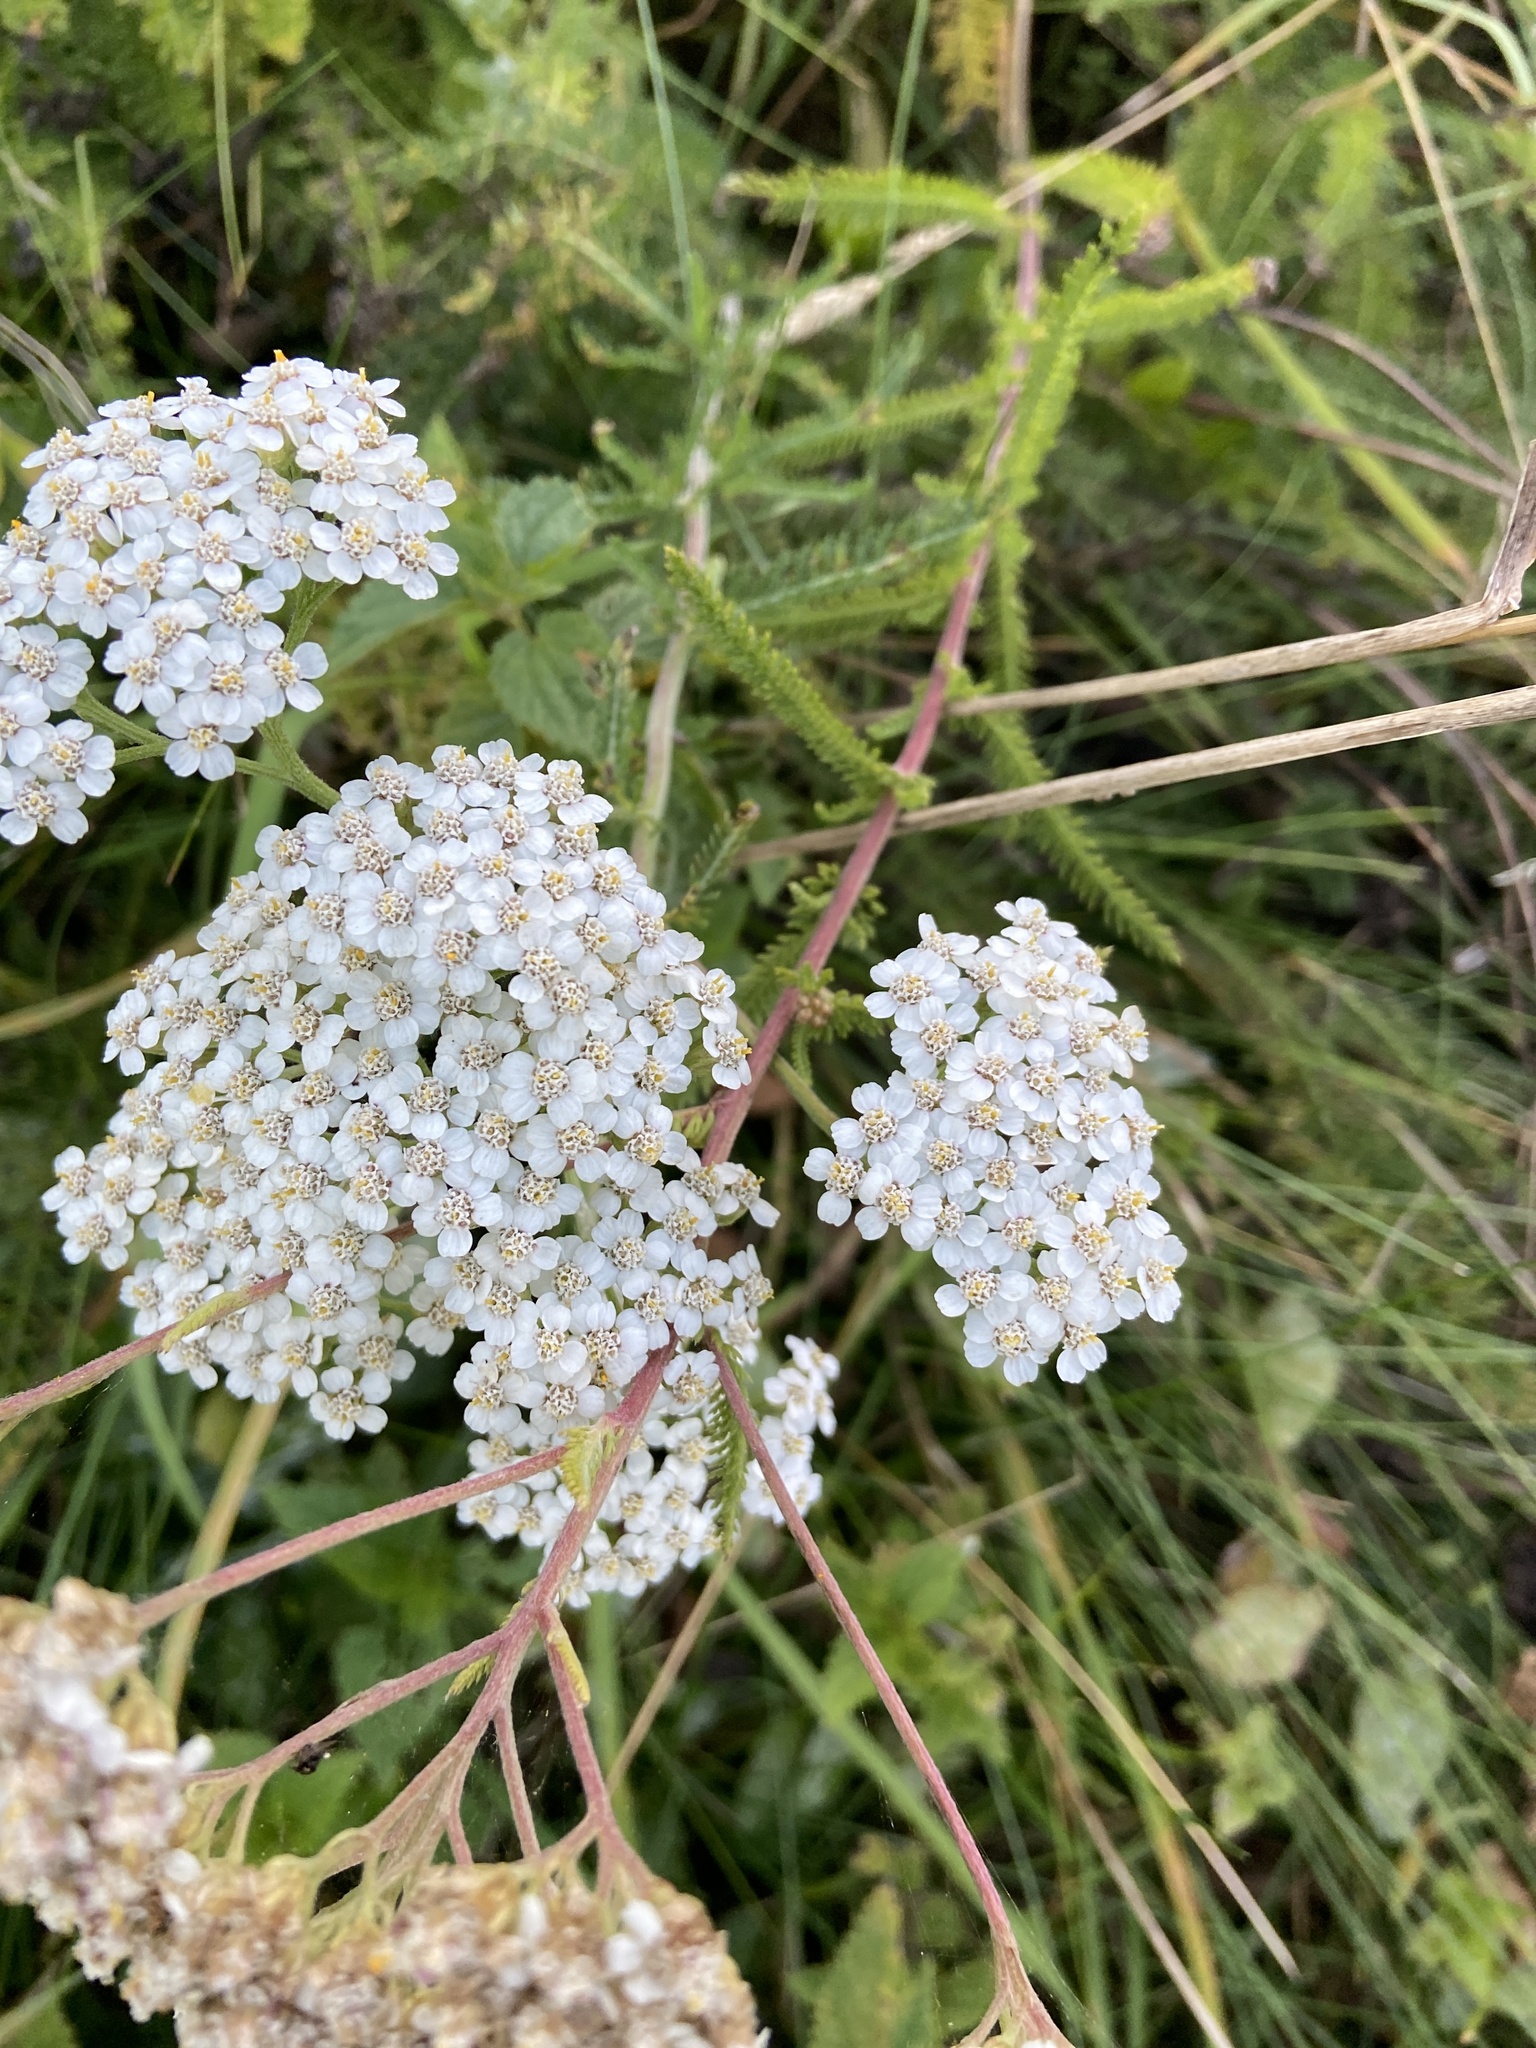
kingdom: Plantae
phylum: Tracheophyta
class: Magnoliopsida
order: Asterales
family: Asteraceae
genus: Achillea
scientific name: Achillea millefolium
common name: Yarrow
